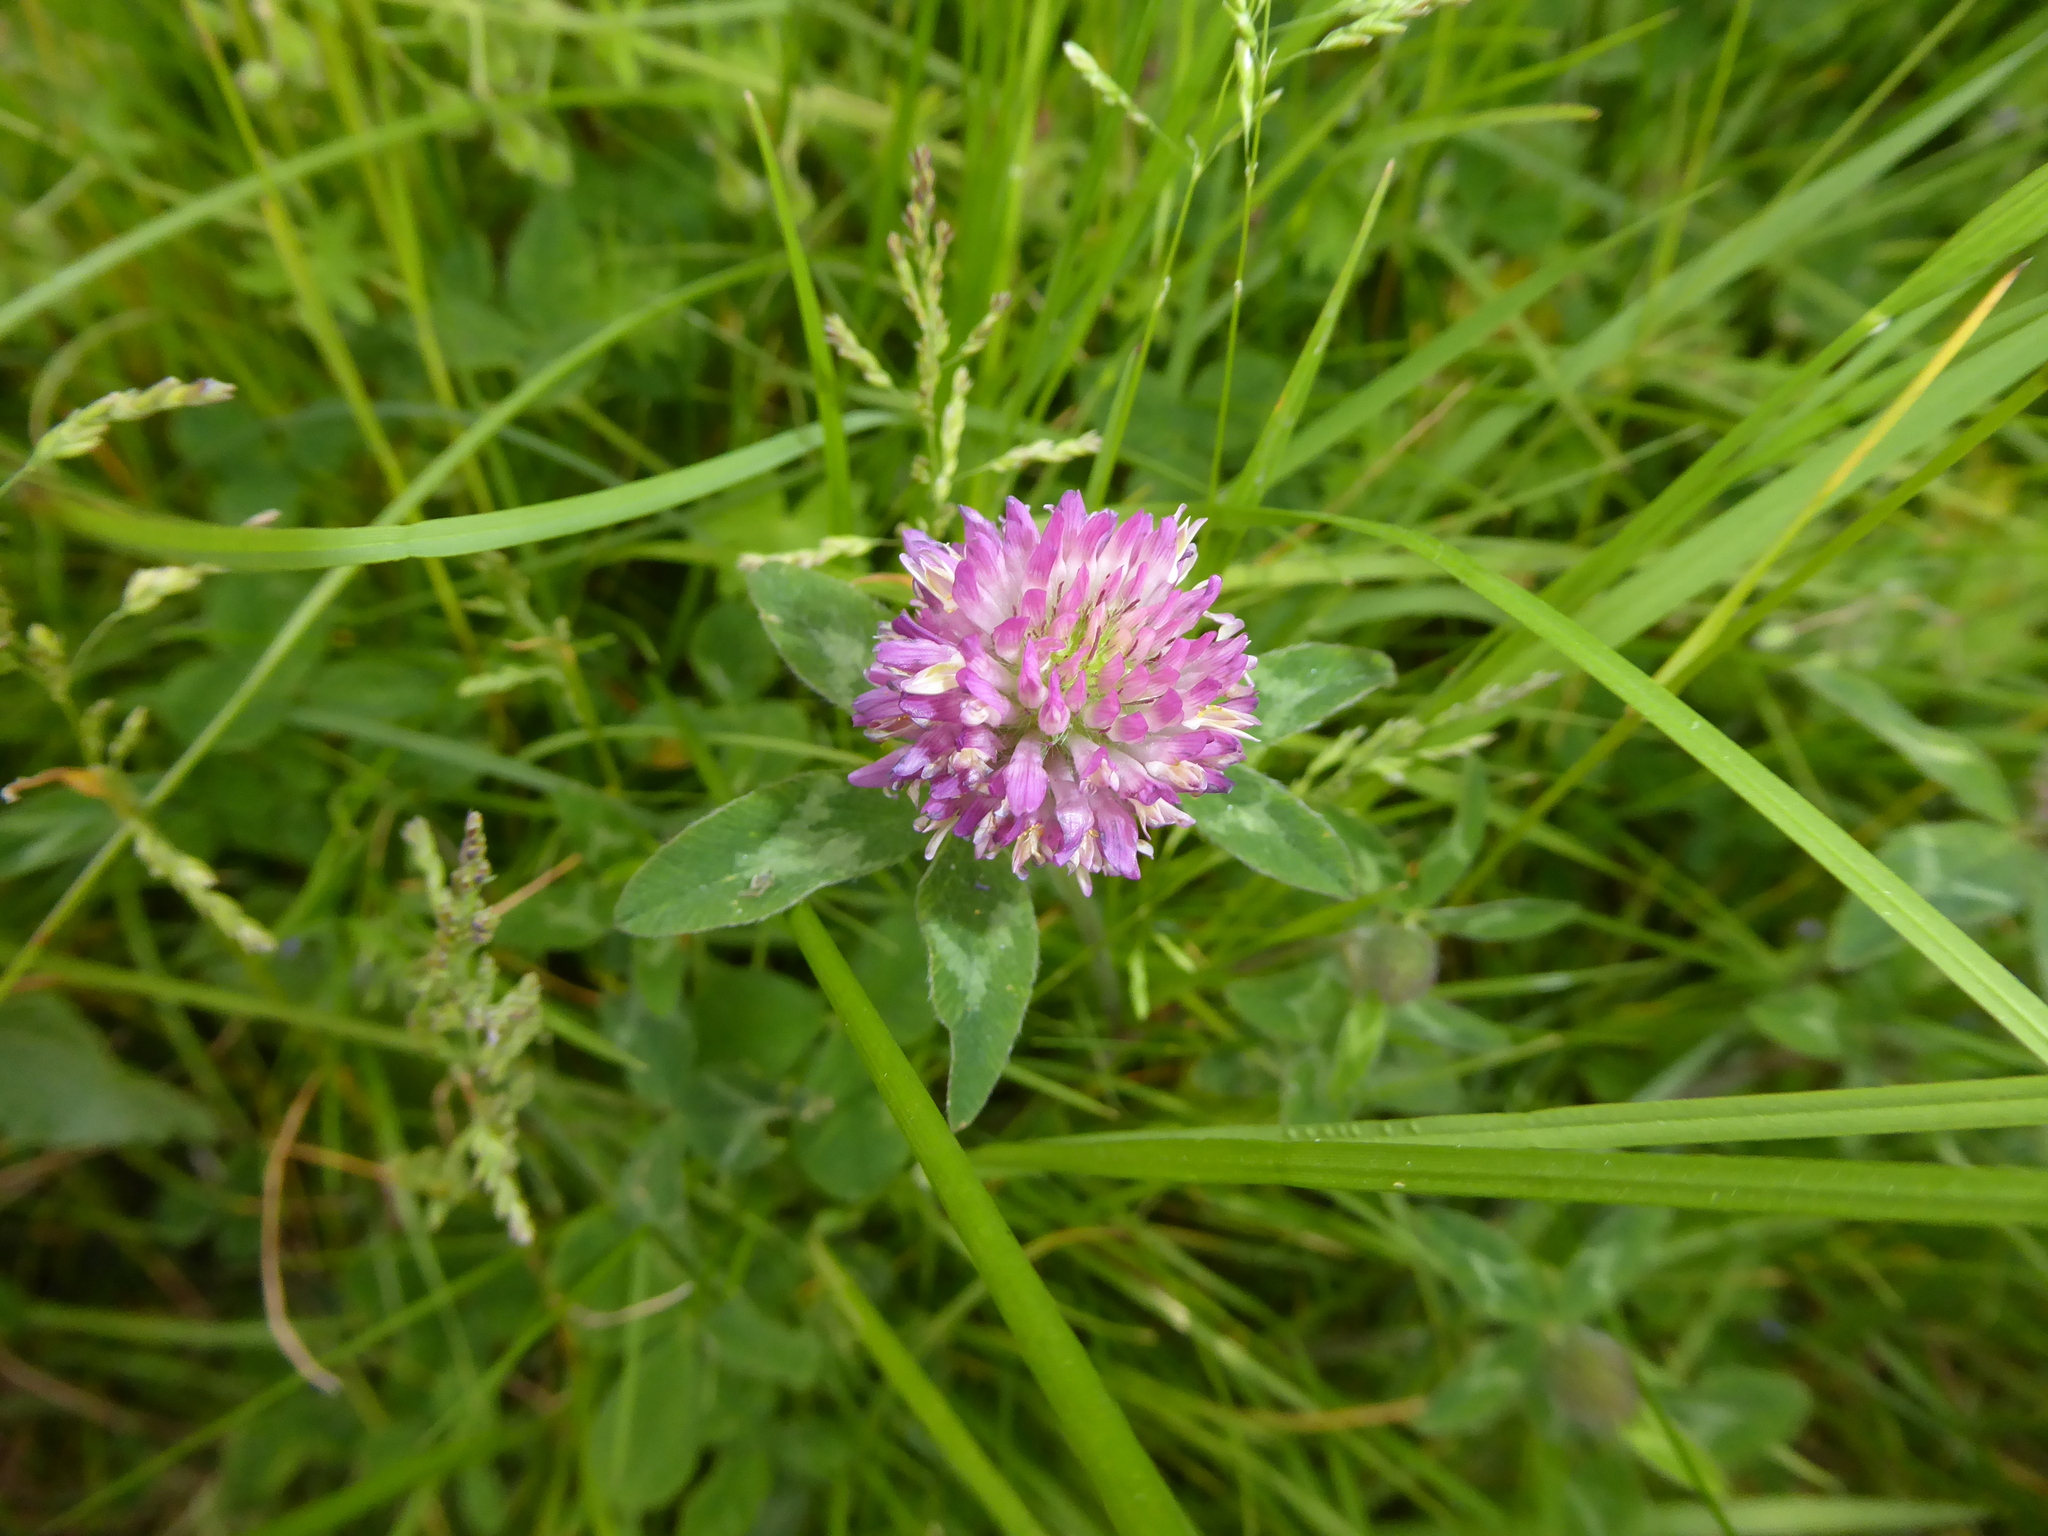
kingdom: Plantae
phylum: Tracheophyta
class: Magnoliopsida
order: Fabales
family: Fabaceae
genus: Trifolium
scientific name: Trifolium pratense
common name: Red clover
